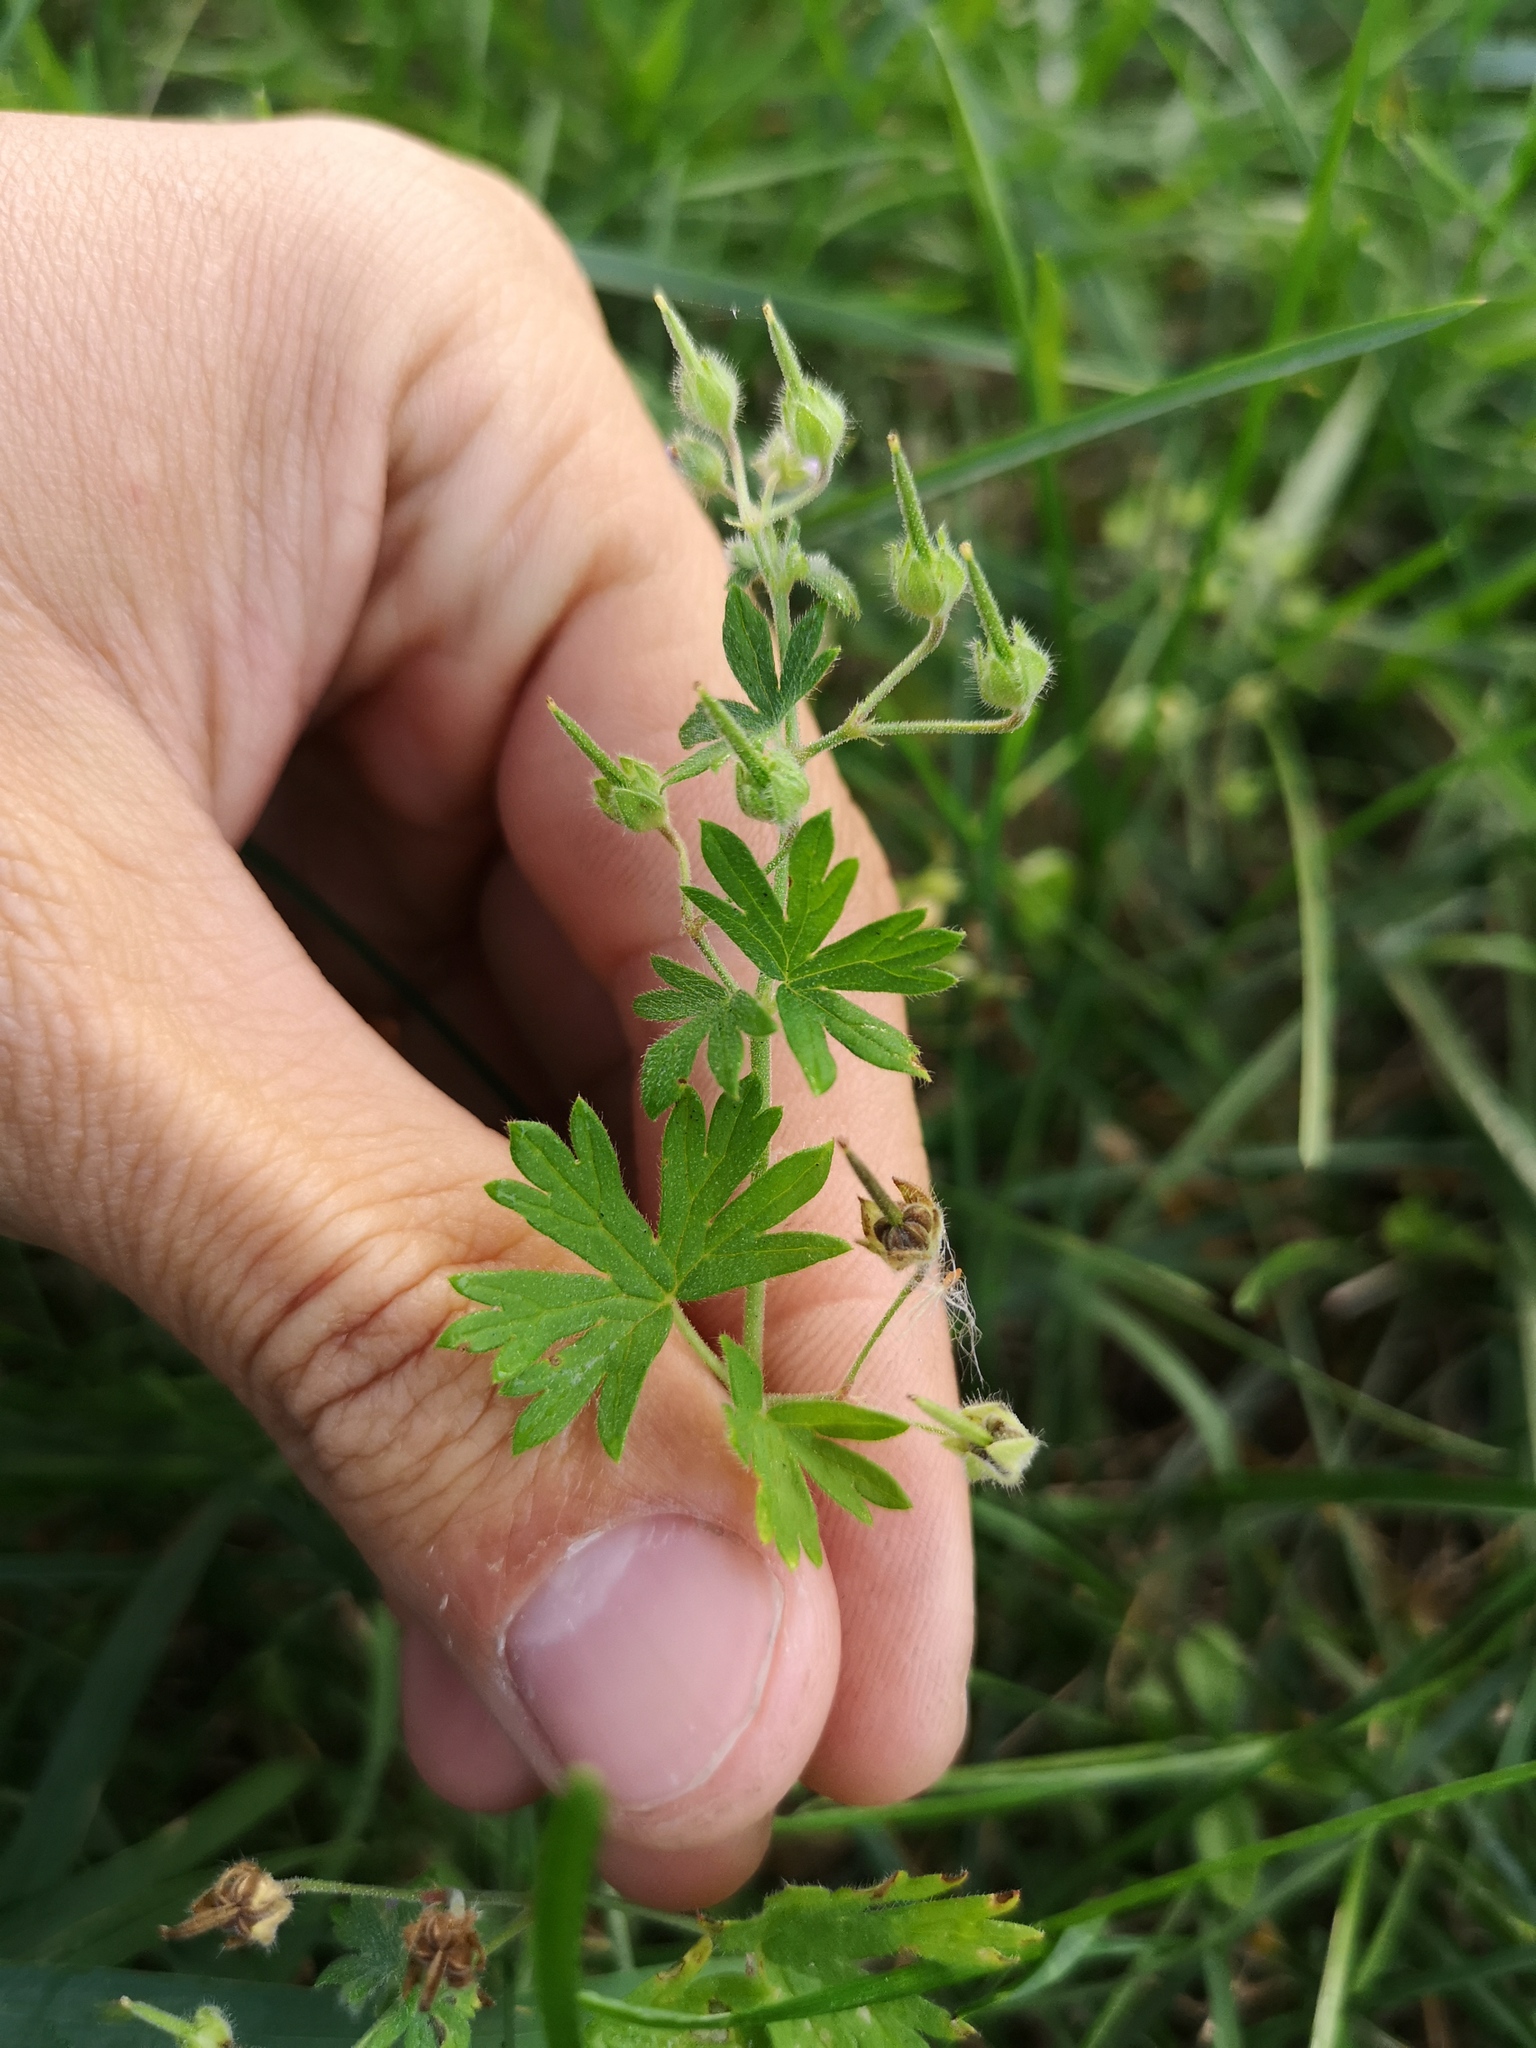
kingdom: Plantae
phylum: Tracheophyta
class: Magnoliopsida
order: Geraniales
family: Geraniaceae
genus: Geranium
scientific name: Geranium pusillum
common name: Small geranium
